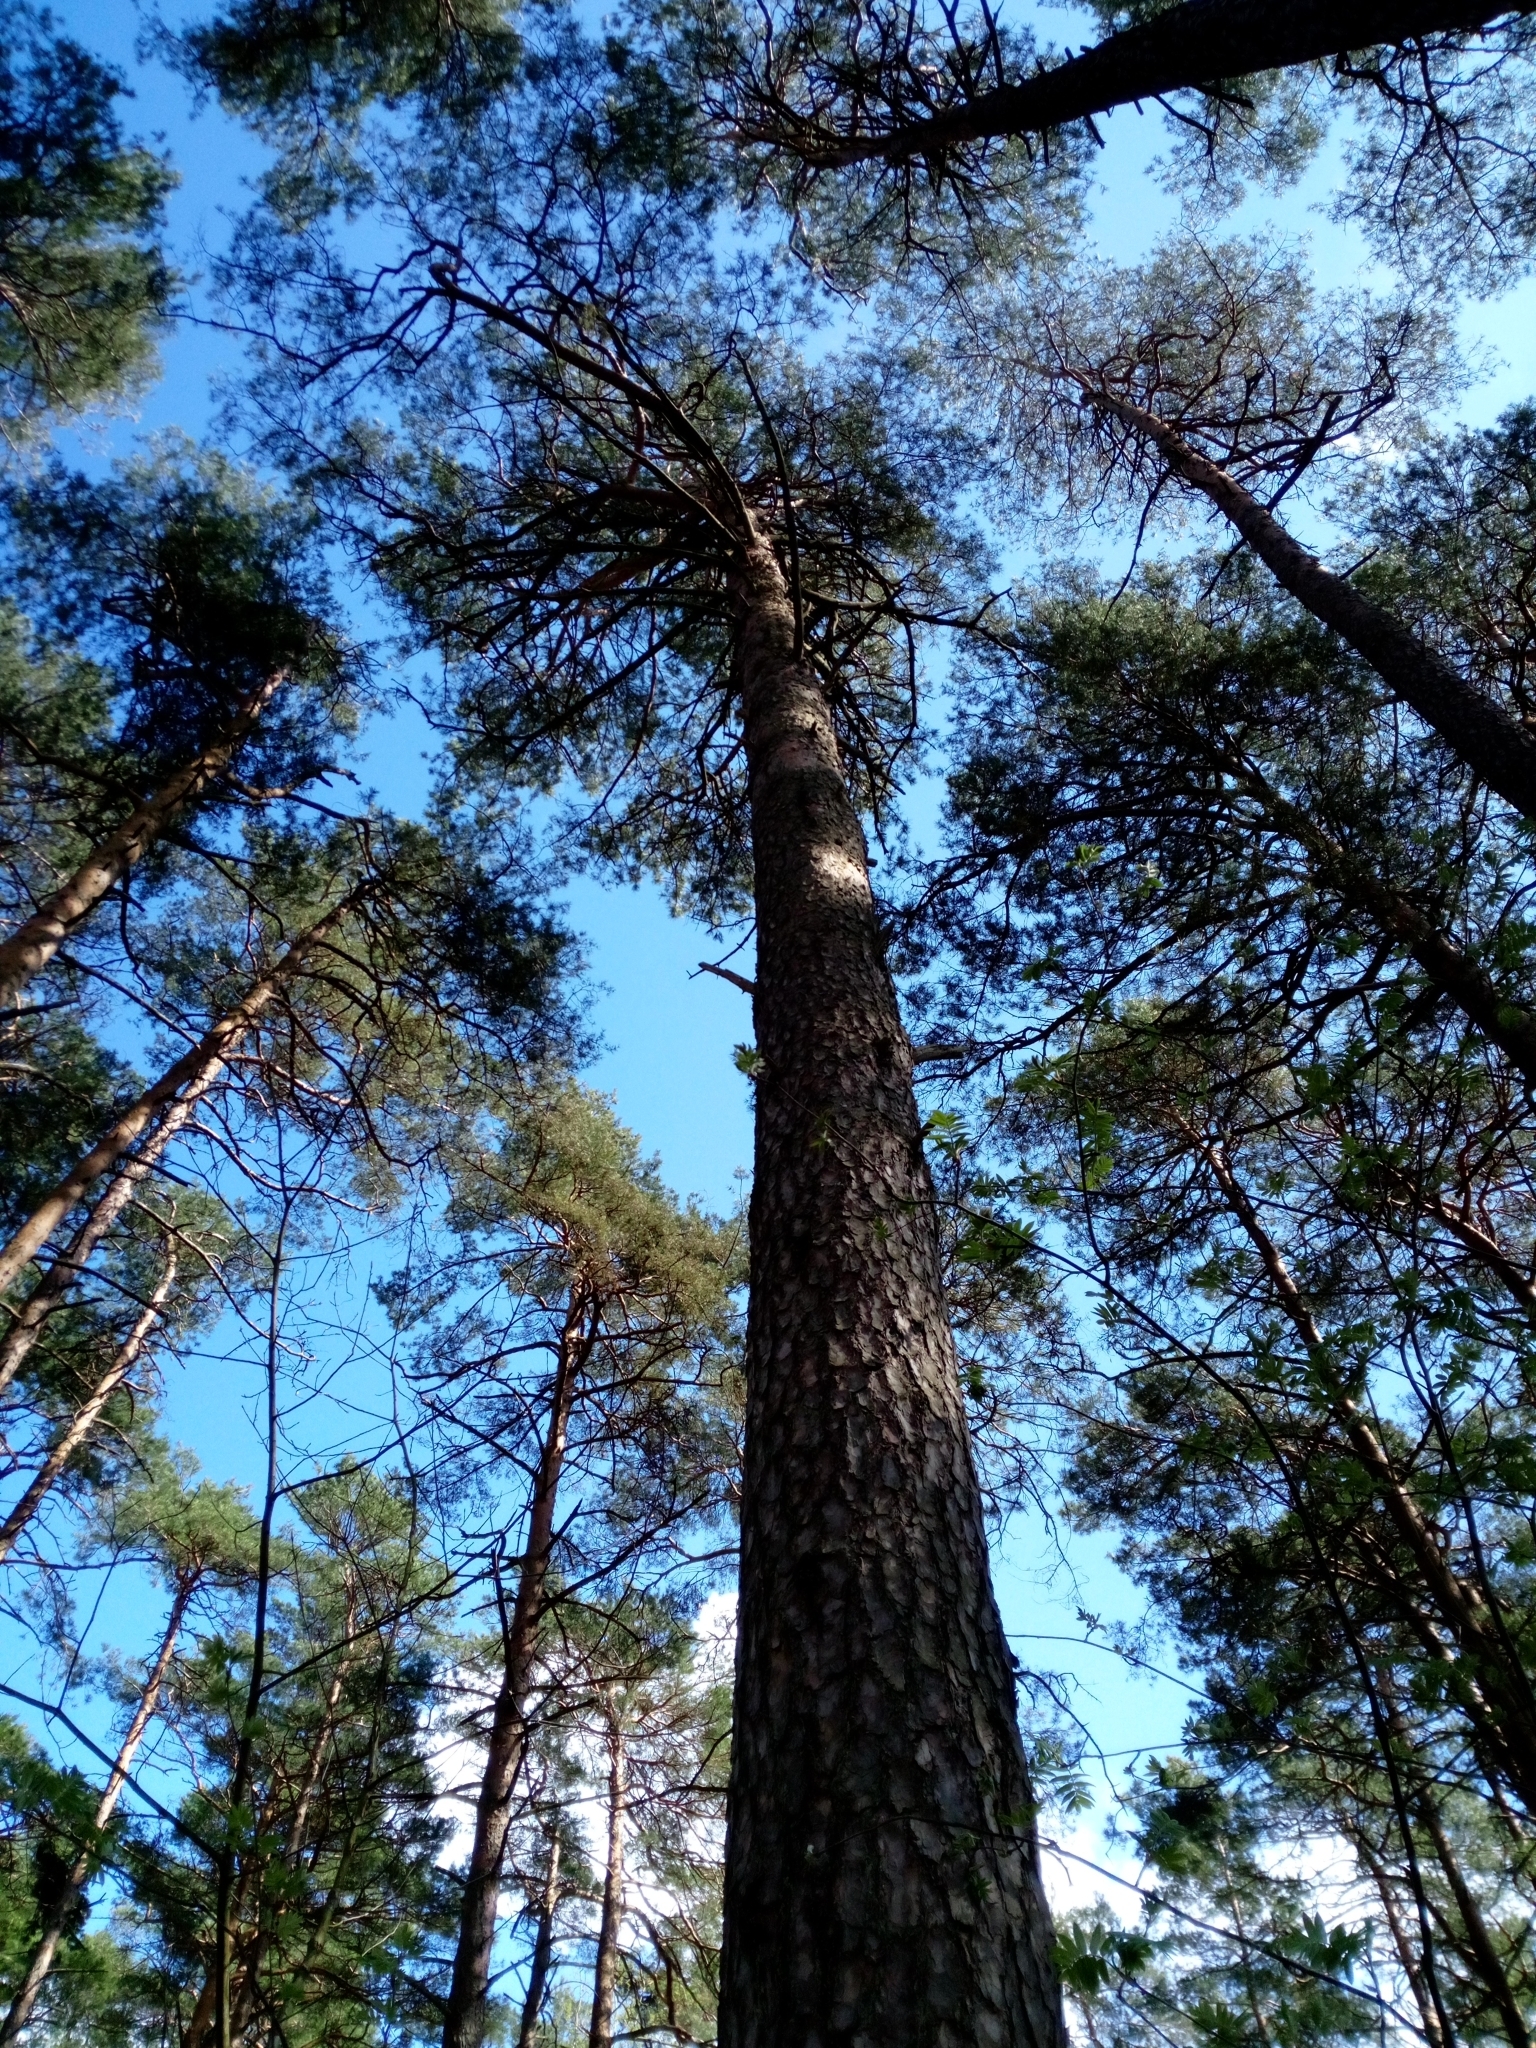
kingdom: Plantae
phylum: Tracheophyta
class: Pinopsida
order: Pinales
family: Pinaceae
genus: Pinus
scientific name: Pinus sylvestris
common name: Scots pine
